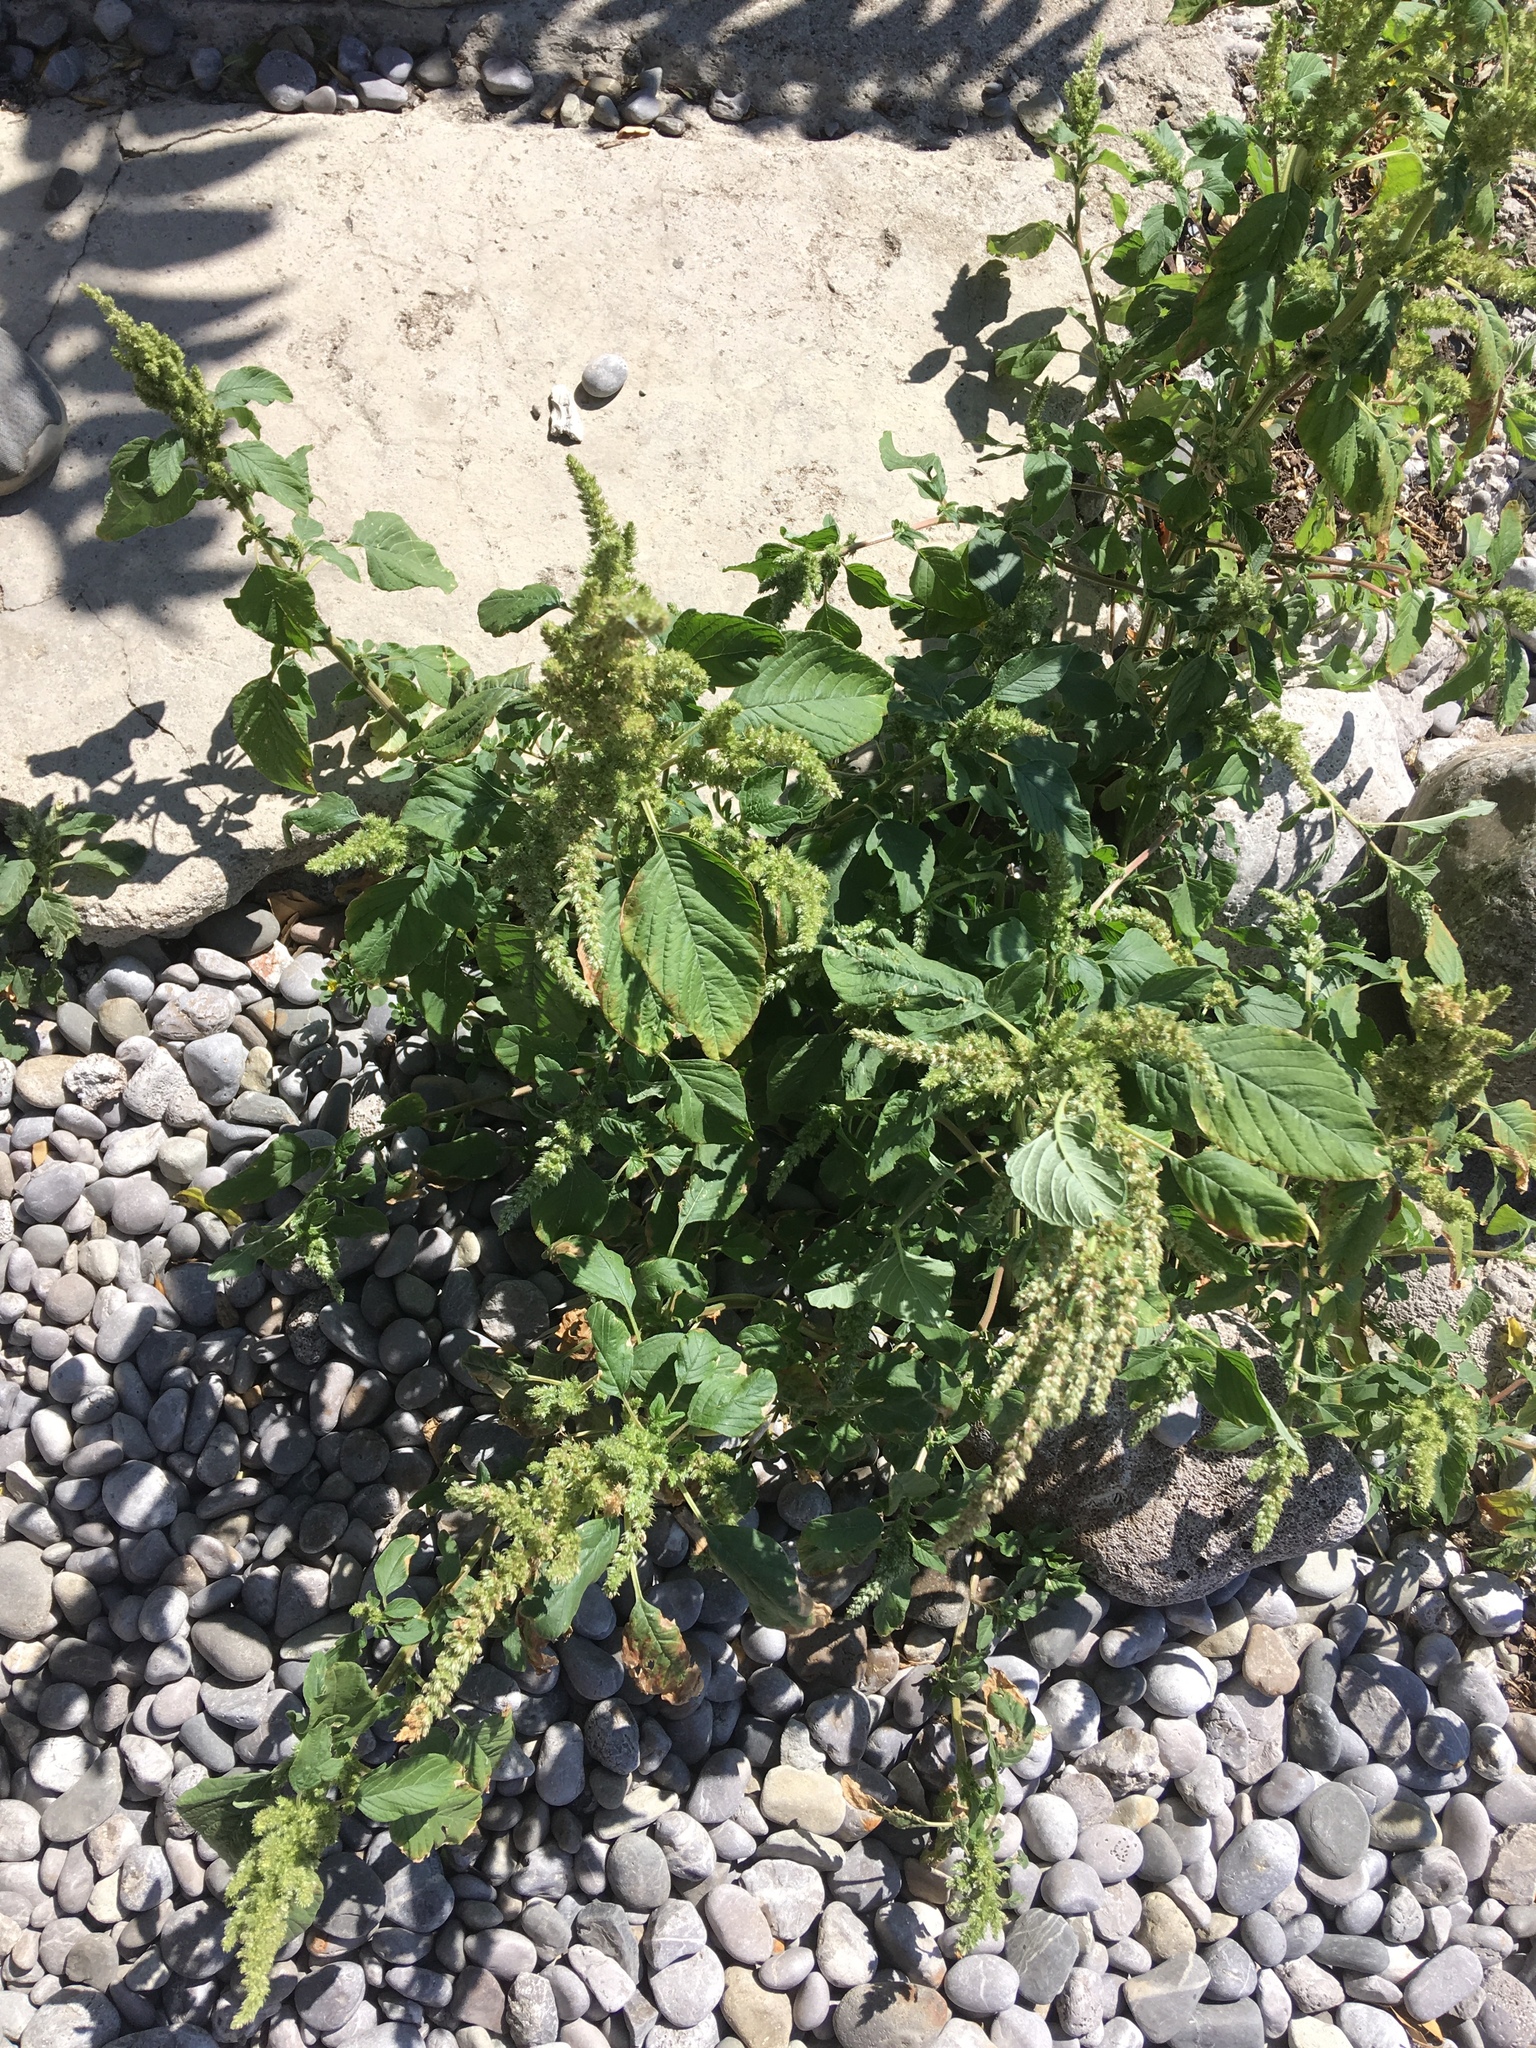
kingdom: Plantae
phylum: Tracheophyta
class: Magnoliopsida
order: Caryophyllales
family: Amaranthaceae
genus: Amaranthus
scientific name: Amaranthus retroflexus
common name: Redroot amaranth
